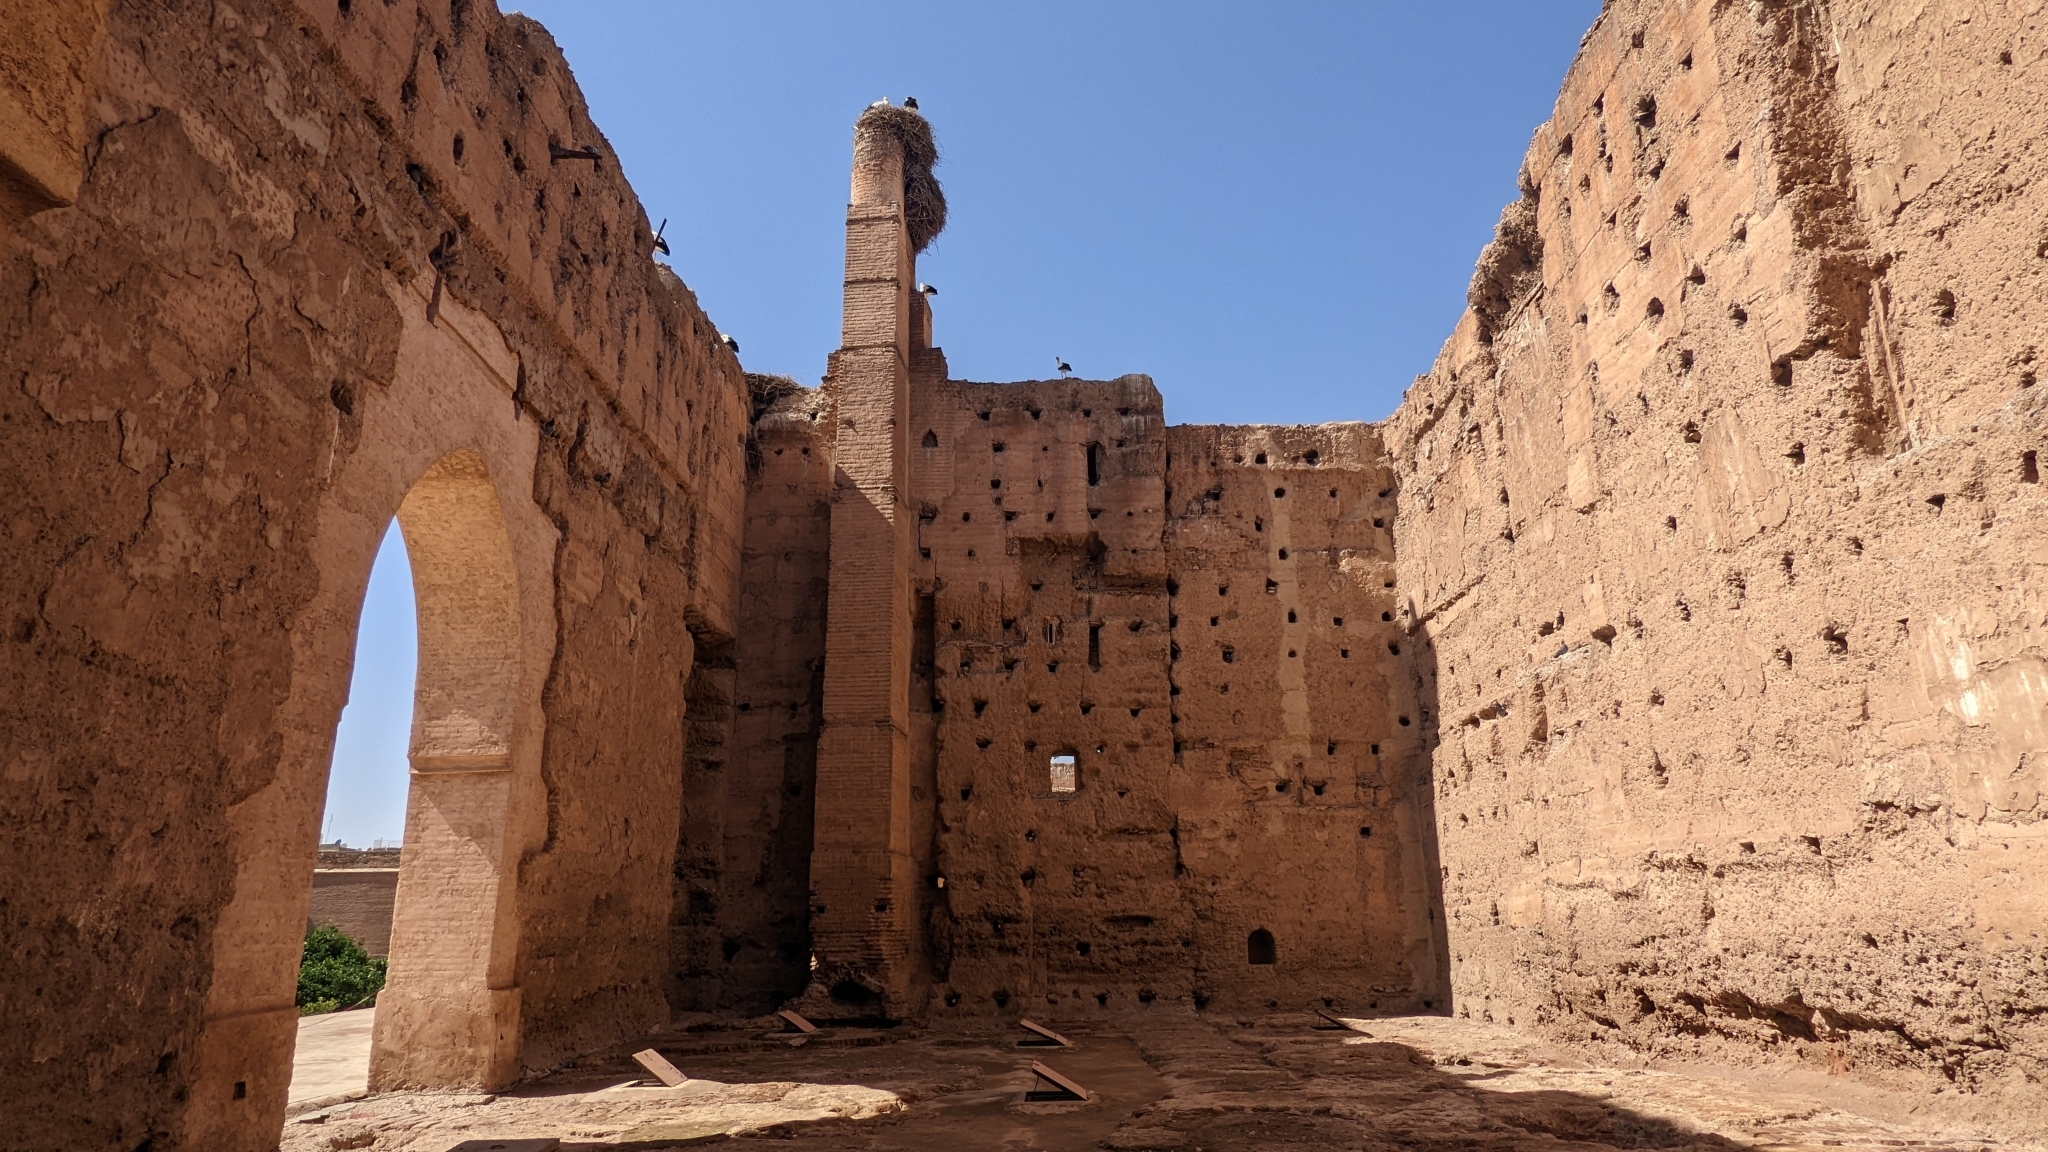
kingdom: Animalia
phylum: Chordata
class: Aves
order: Ciconiiformes
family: Ciconiidae
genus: Ciconia
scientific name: Ciconia ciconia
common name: White stork
